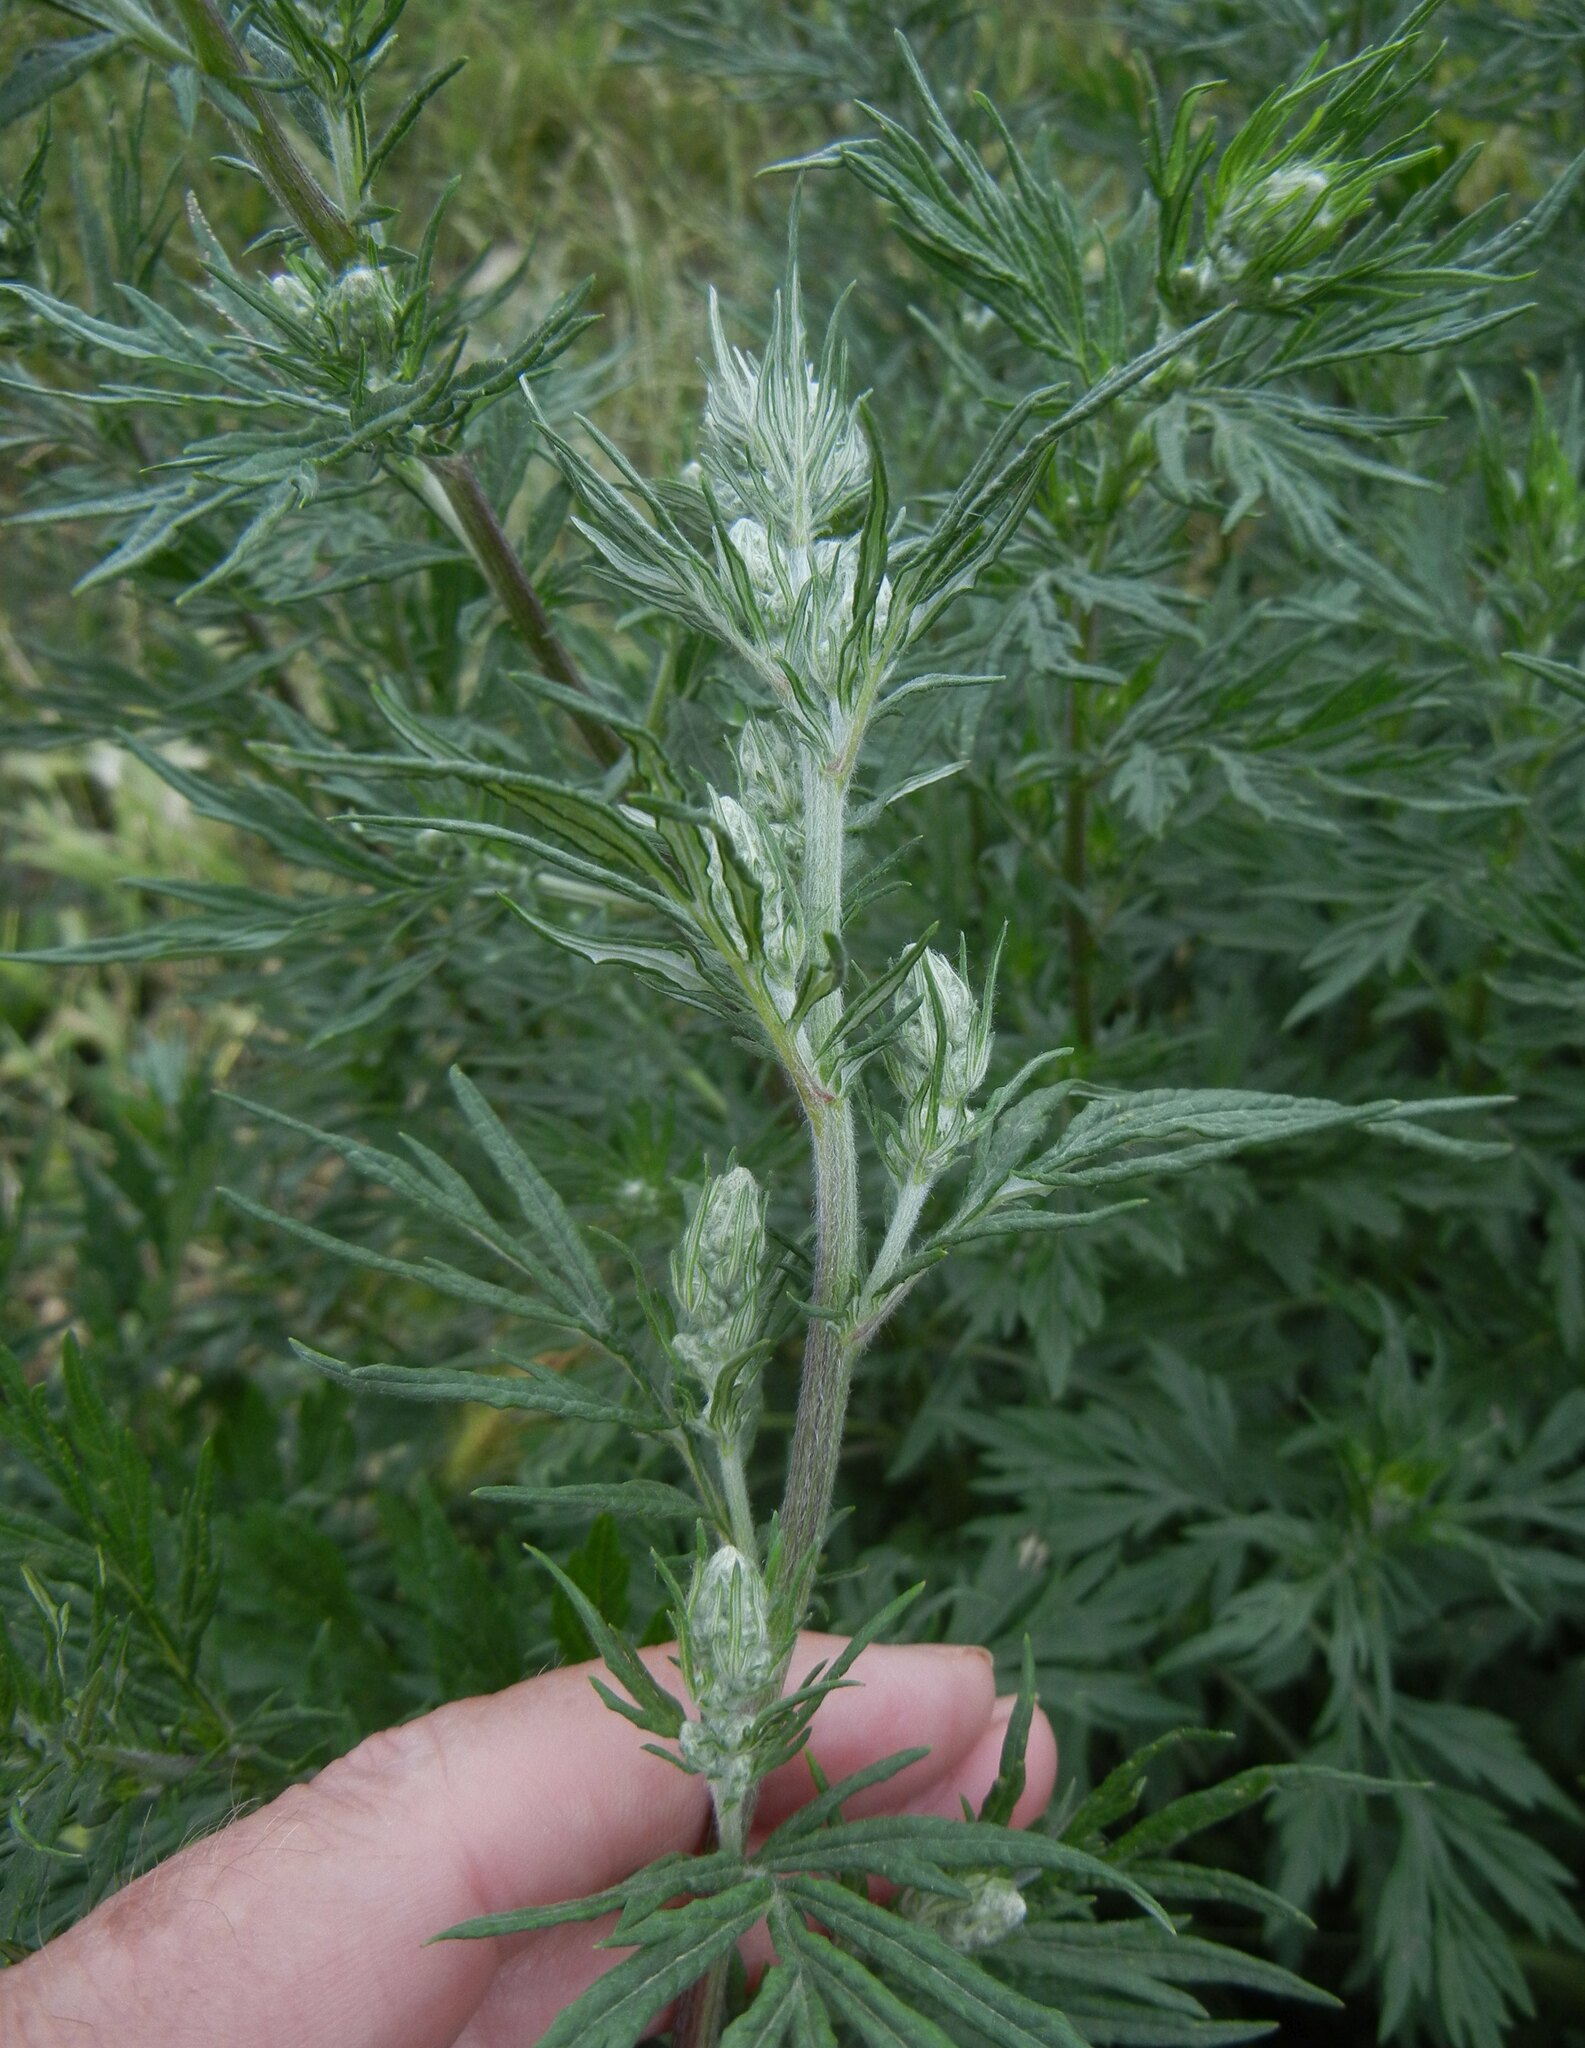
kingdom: Plantae
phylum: Tracheophyta
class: Magnoliopsida
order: Asterales
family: Asteraceae
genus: Artemisia
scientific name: Artemisia vulgaris
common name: Mugwort
